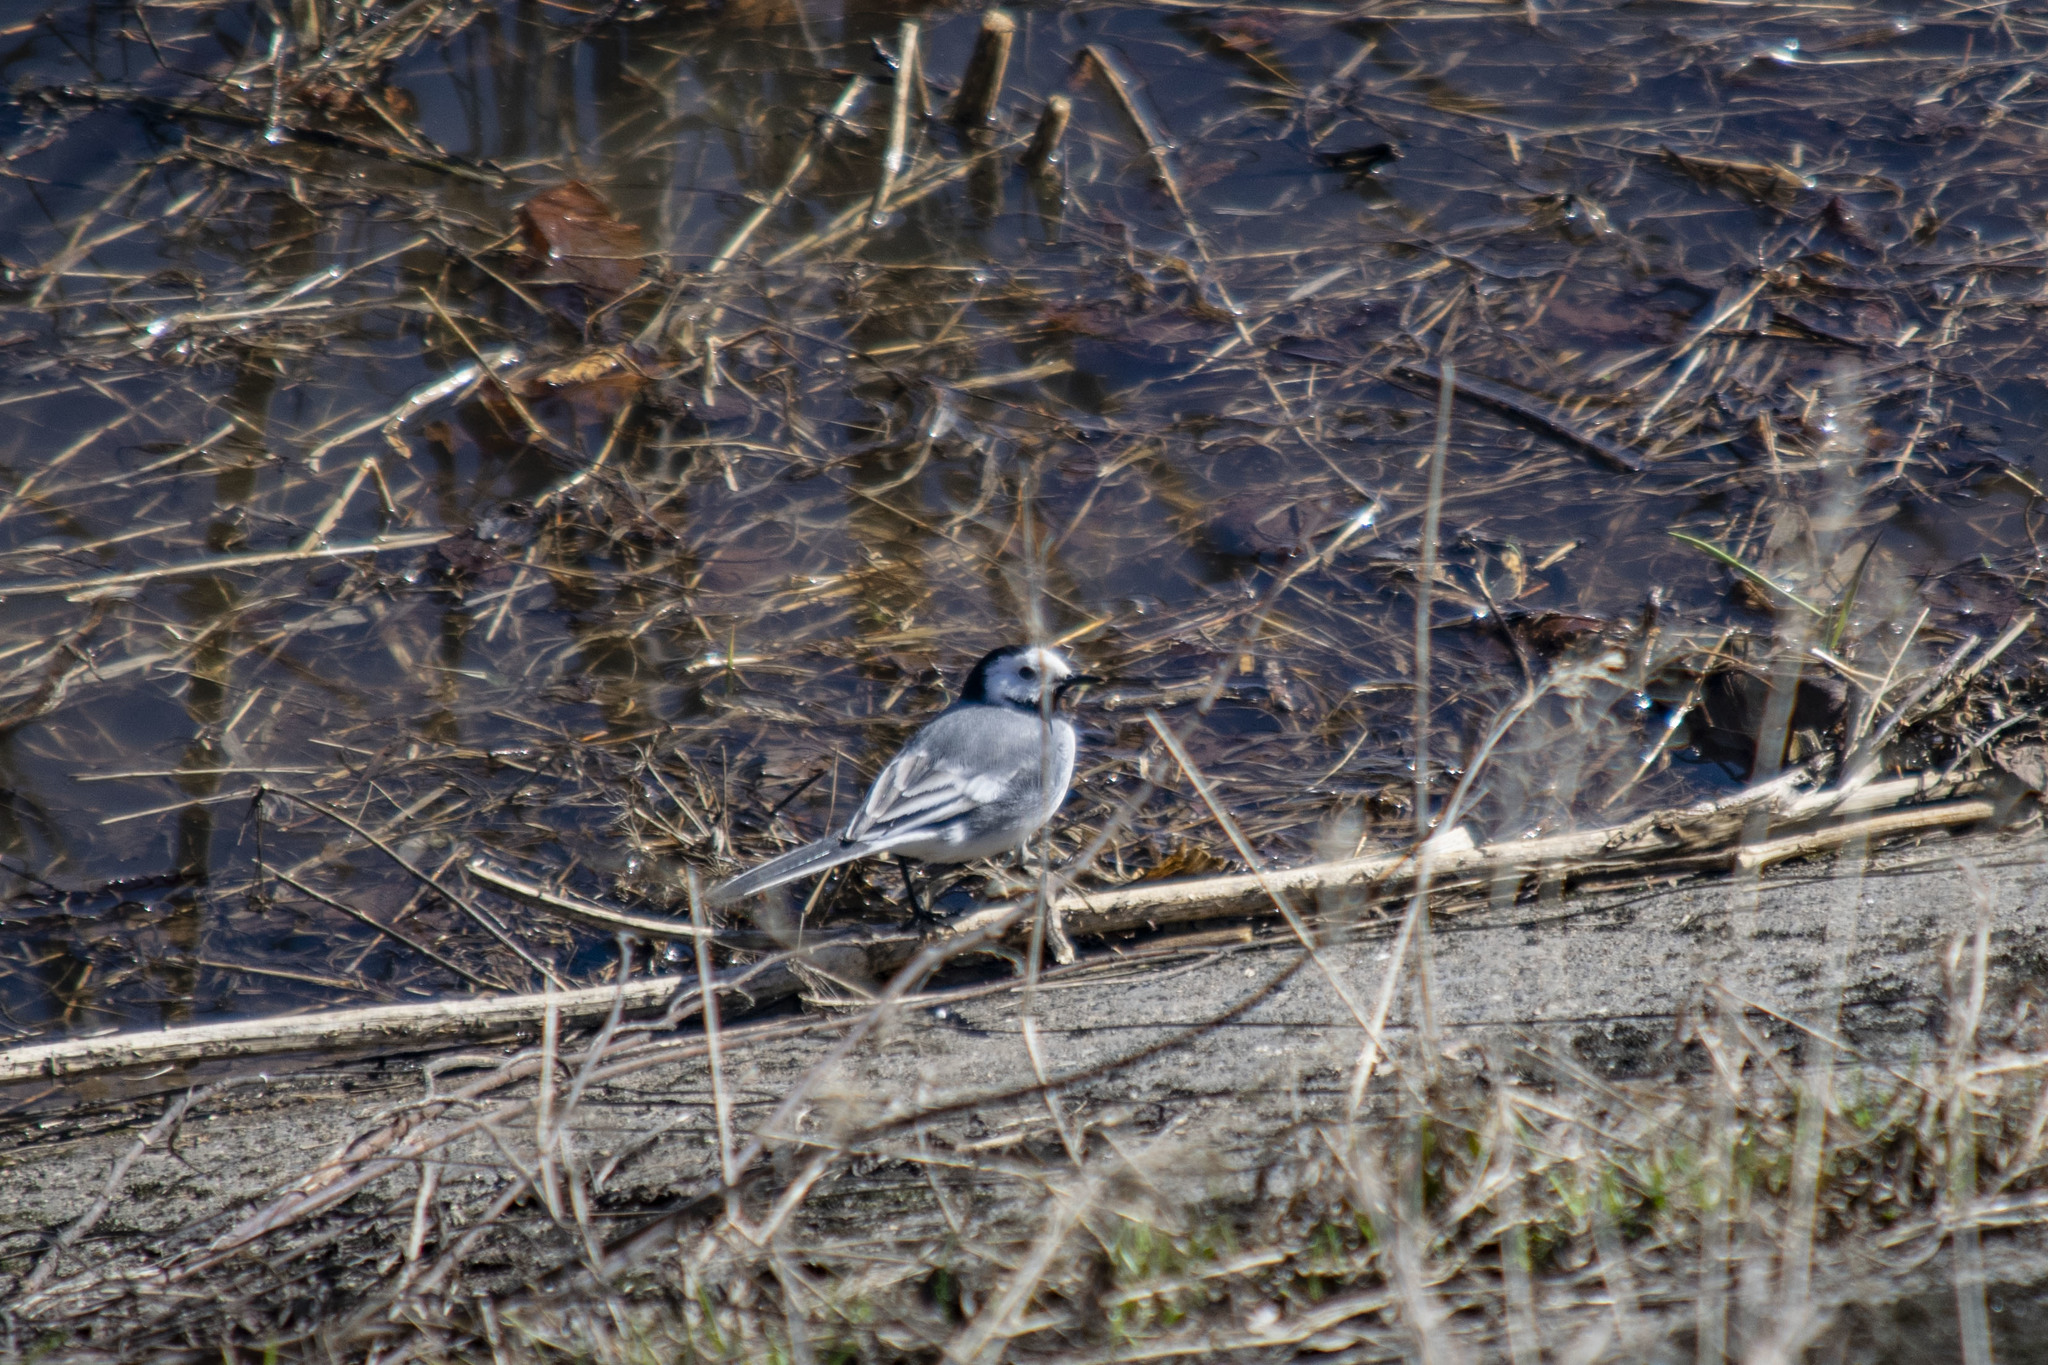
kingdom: Animalia
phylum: Chordata
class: Aves
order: Passeriformes
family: Motacillidae
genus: Motacilla
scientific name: Motacilla alba
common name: White wagtail
